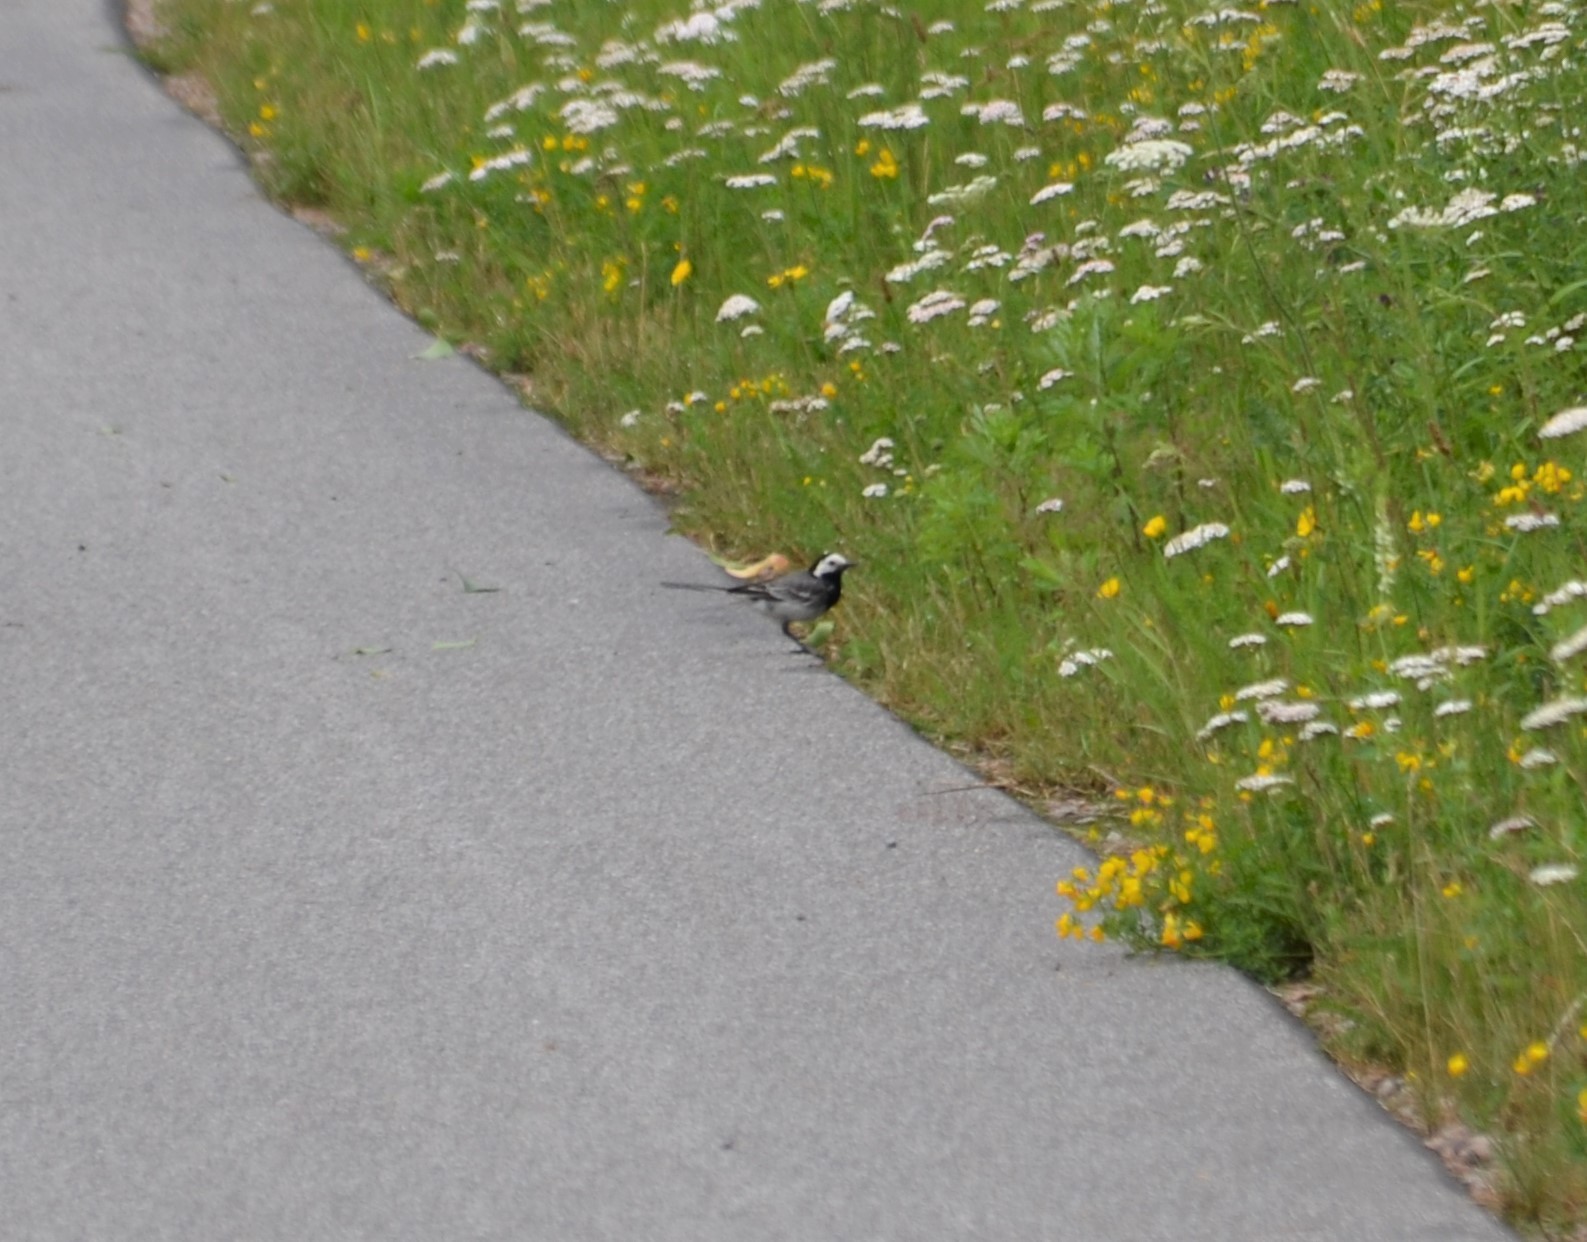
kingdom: Animalia
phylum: Chordata
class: Aves
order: Passeriformes
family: Motacillidae
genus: Motacilla
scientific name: Motacilla alba
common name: White wagtail
